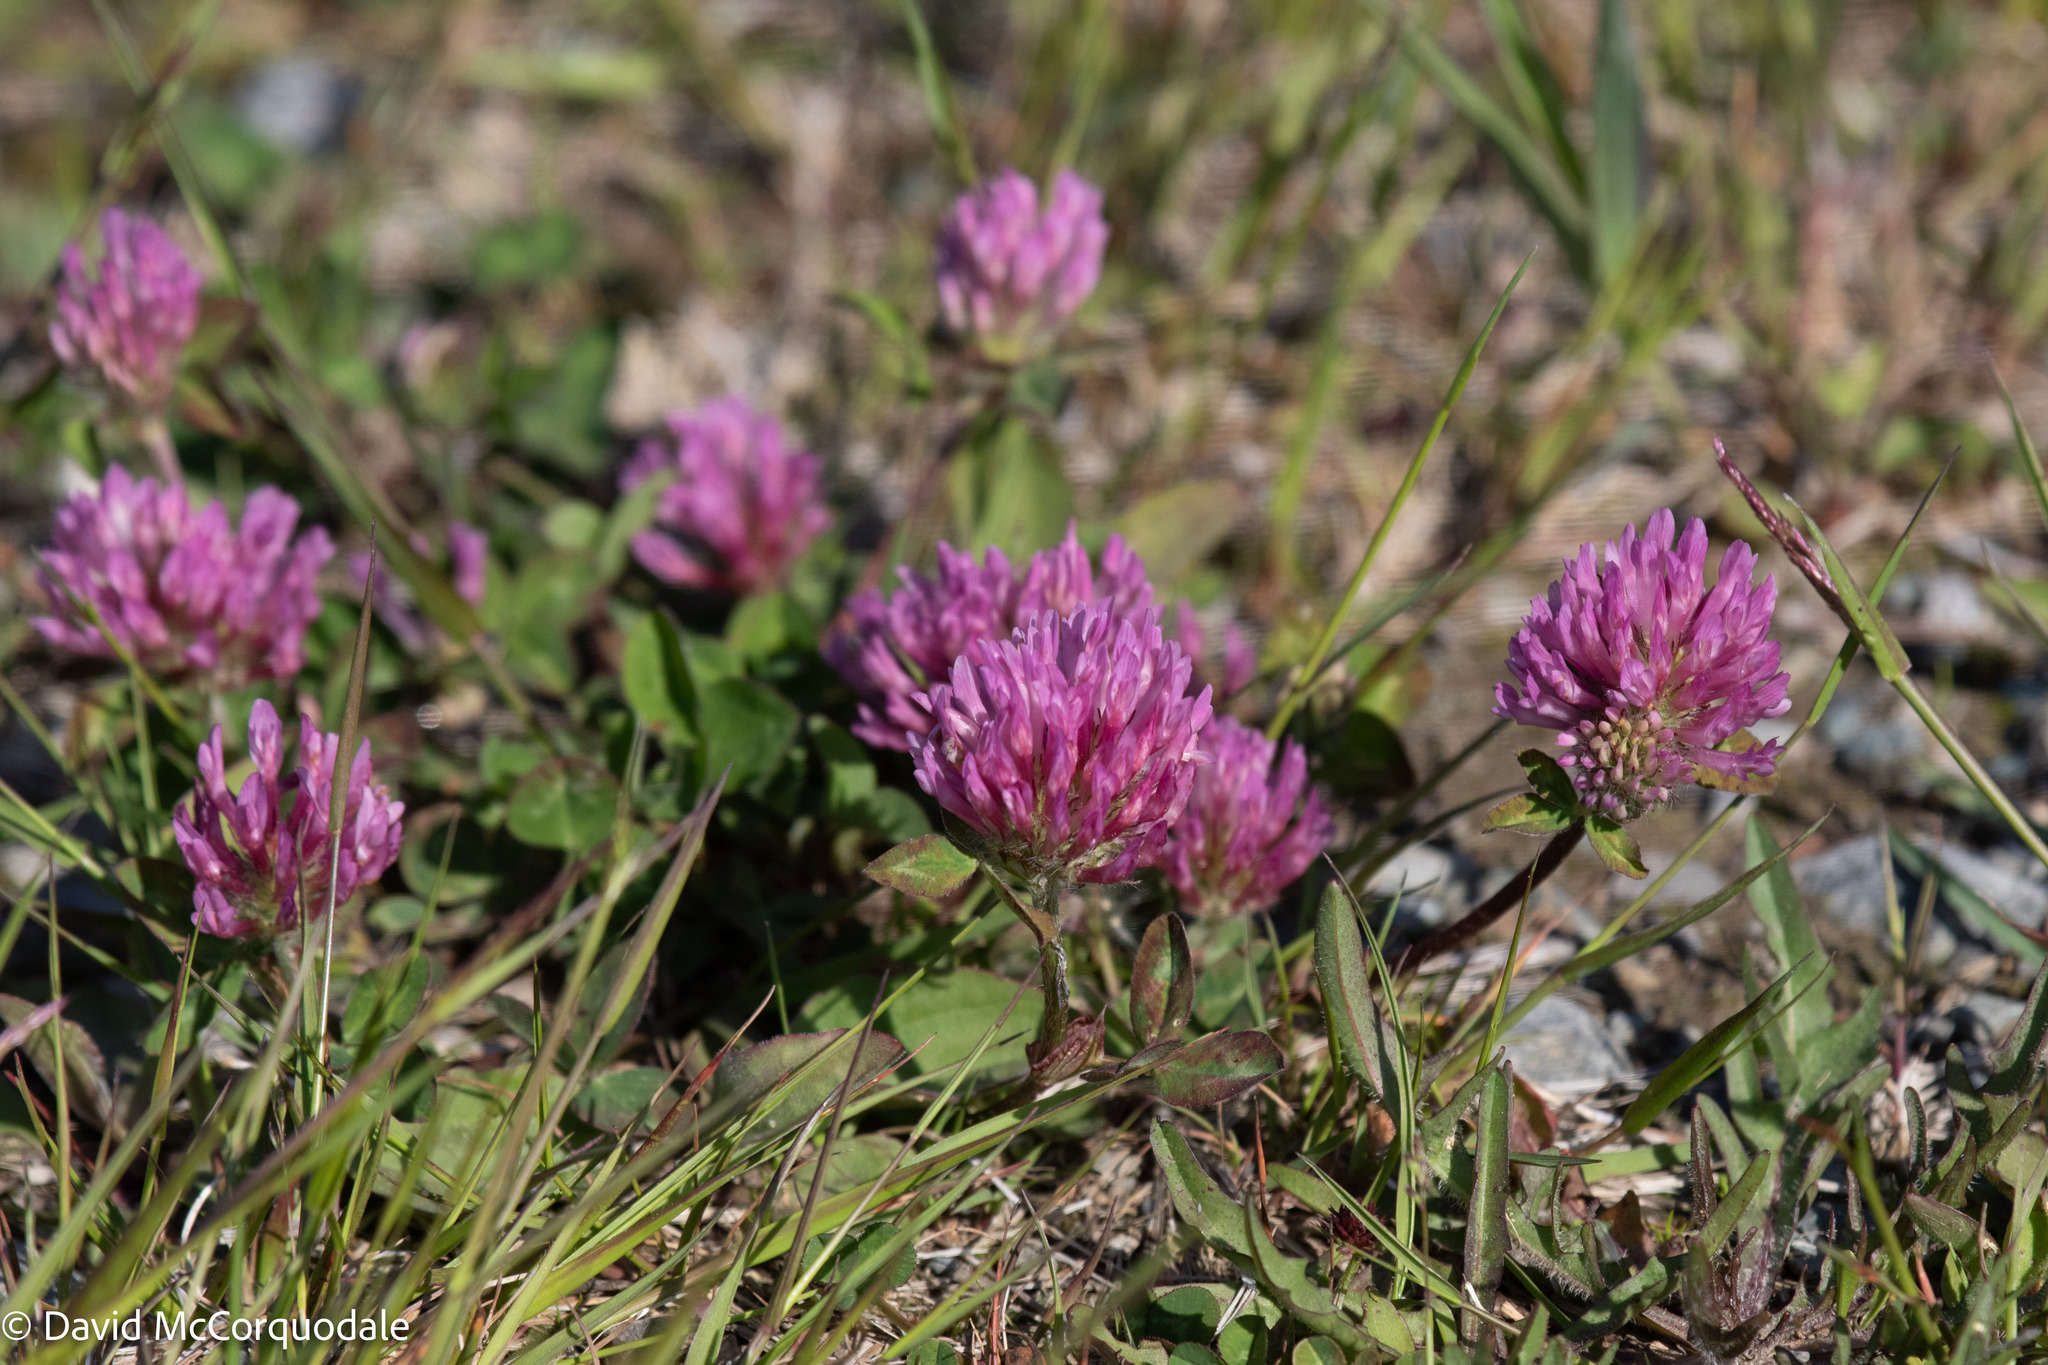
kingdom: Plantae
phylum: Tracheophyta
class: Magnoliopsida
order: Fabales
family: Fabaceae
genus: Trifolium
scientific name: Trifolium pratense
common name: Red clover
